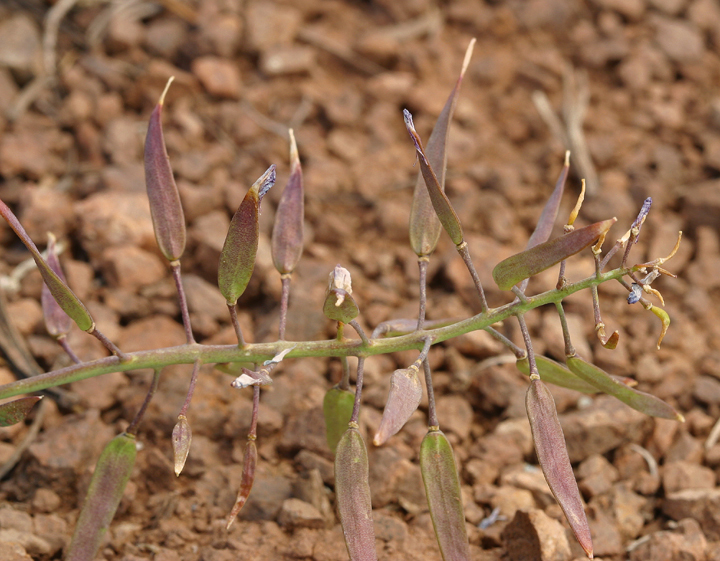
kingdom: Plantae
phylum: Tracheophyta
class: Magnoliopsida
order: Brassicales
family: Brassicaceae
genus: Phoenicaulis
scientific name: Phoenicaulis cheiranthoides
